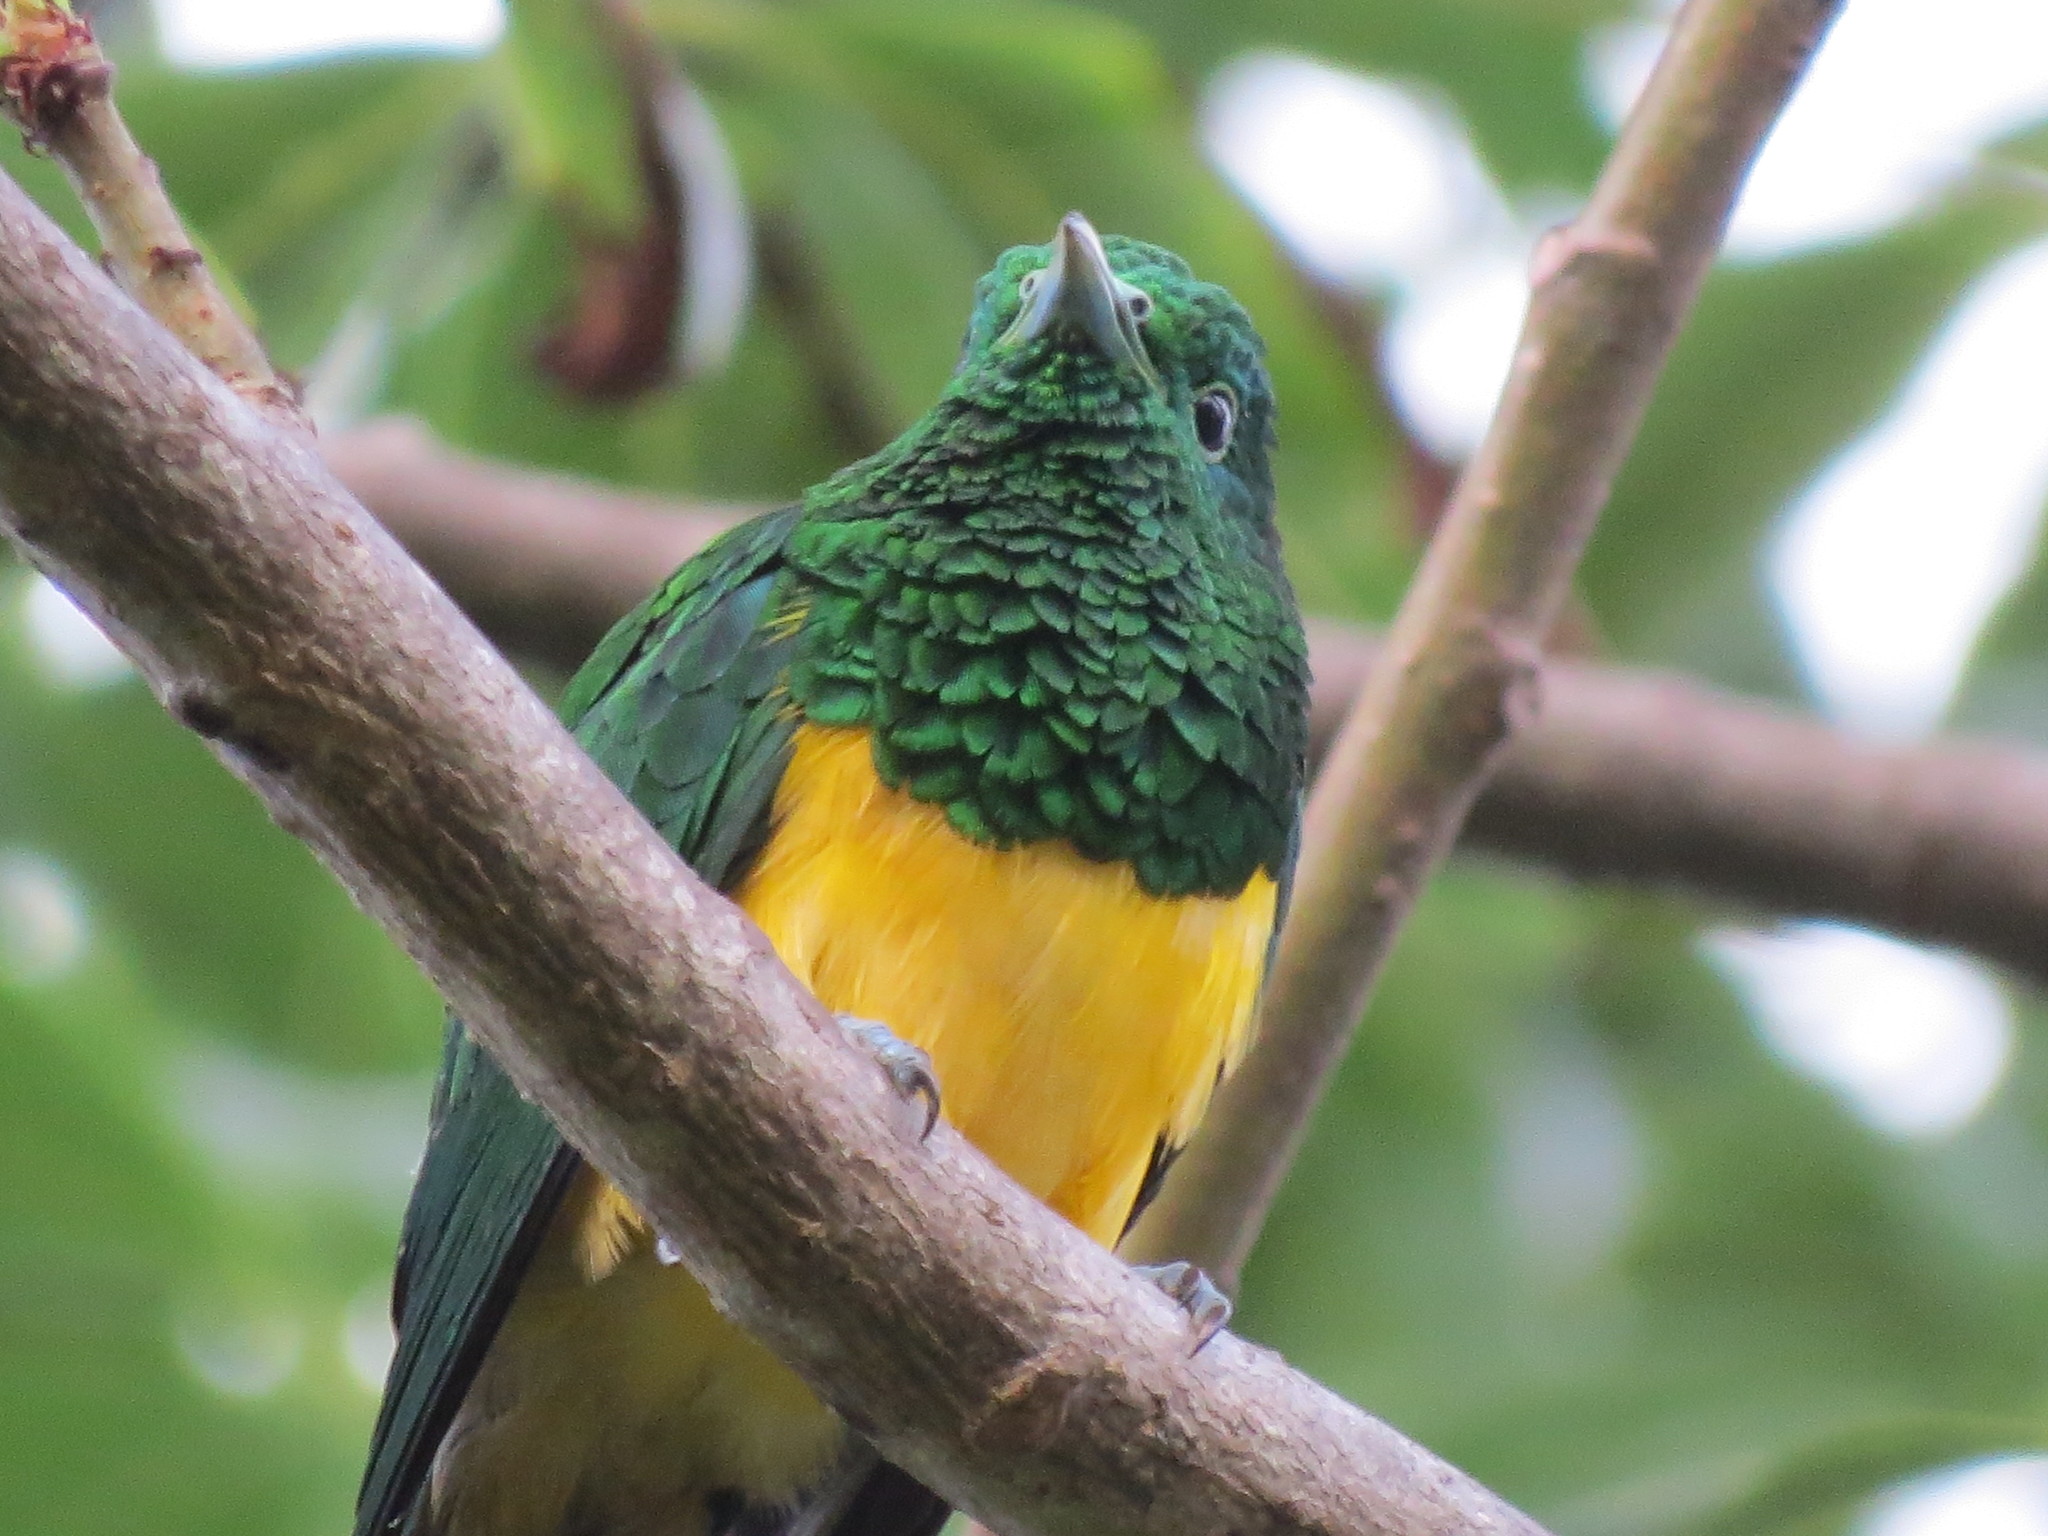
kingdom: Animalia
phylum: Chordata
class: Aves
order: Cuculiformes
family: Cuculidae
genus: Chrysococcyx
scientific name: Chrysococcyx cupreus
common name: African emerald cuckoo
